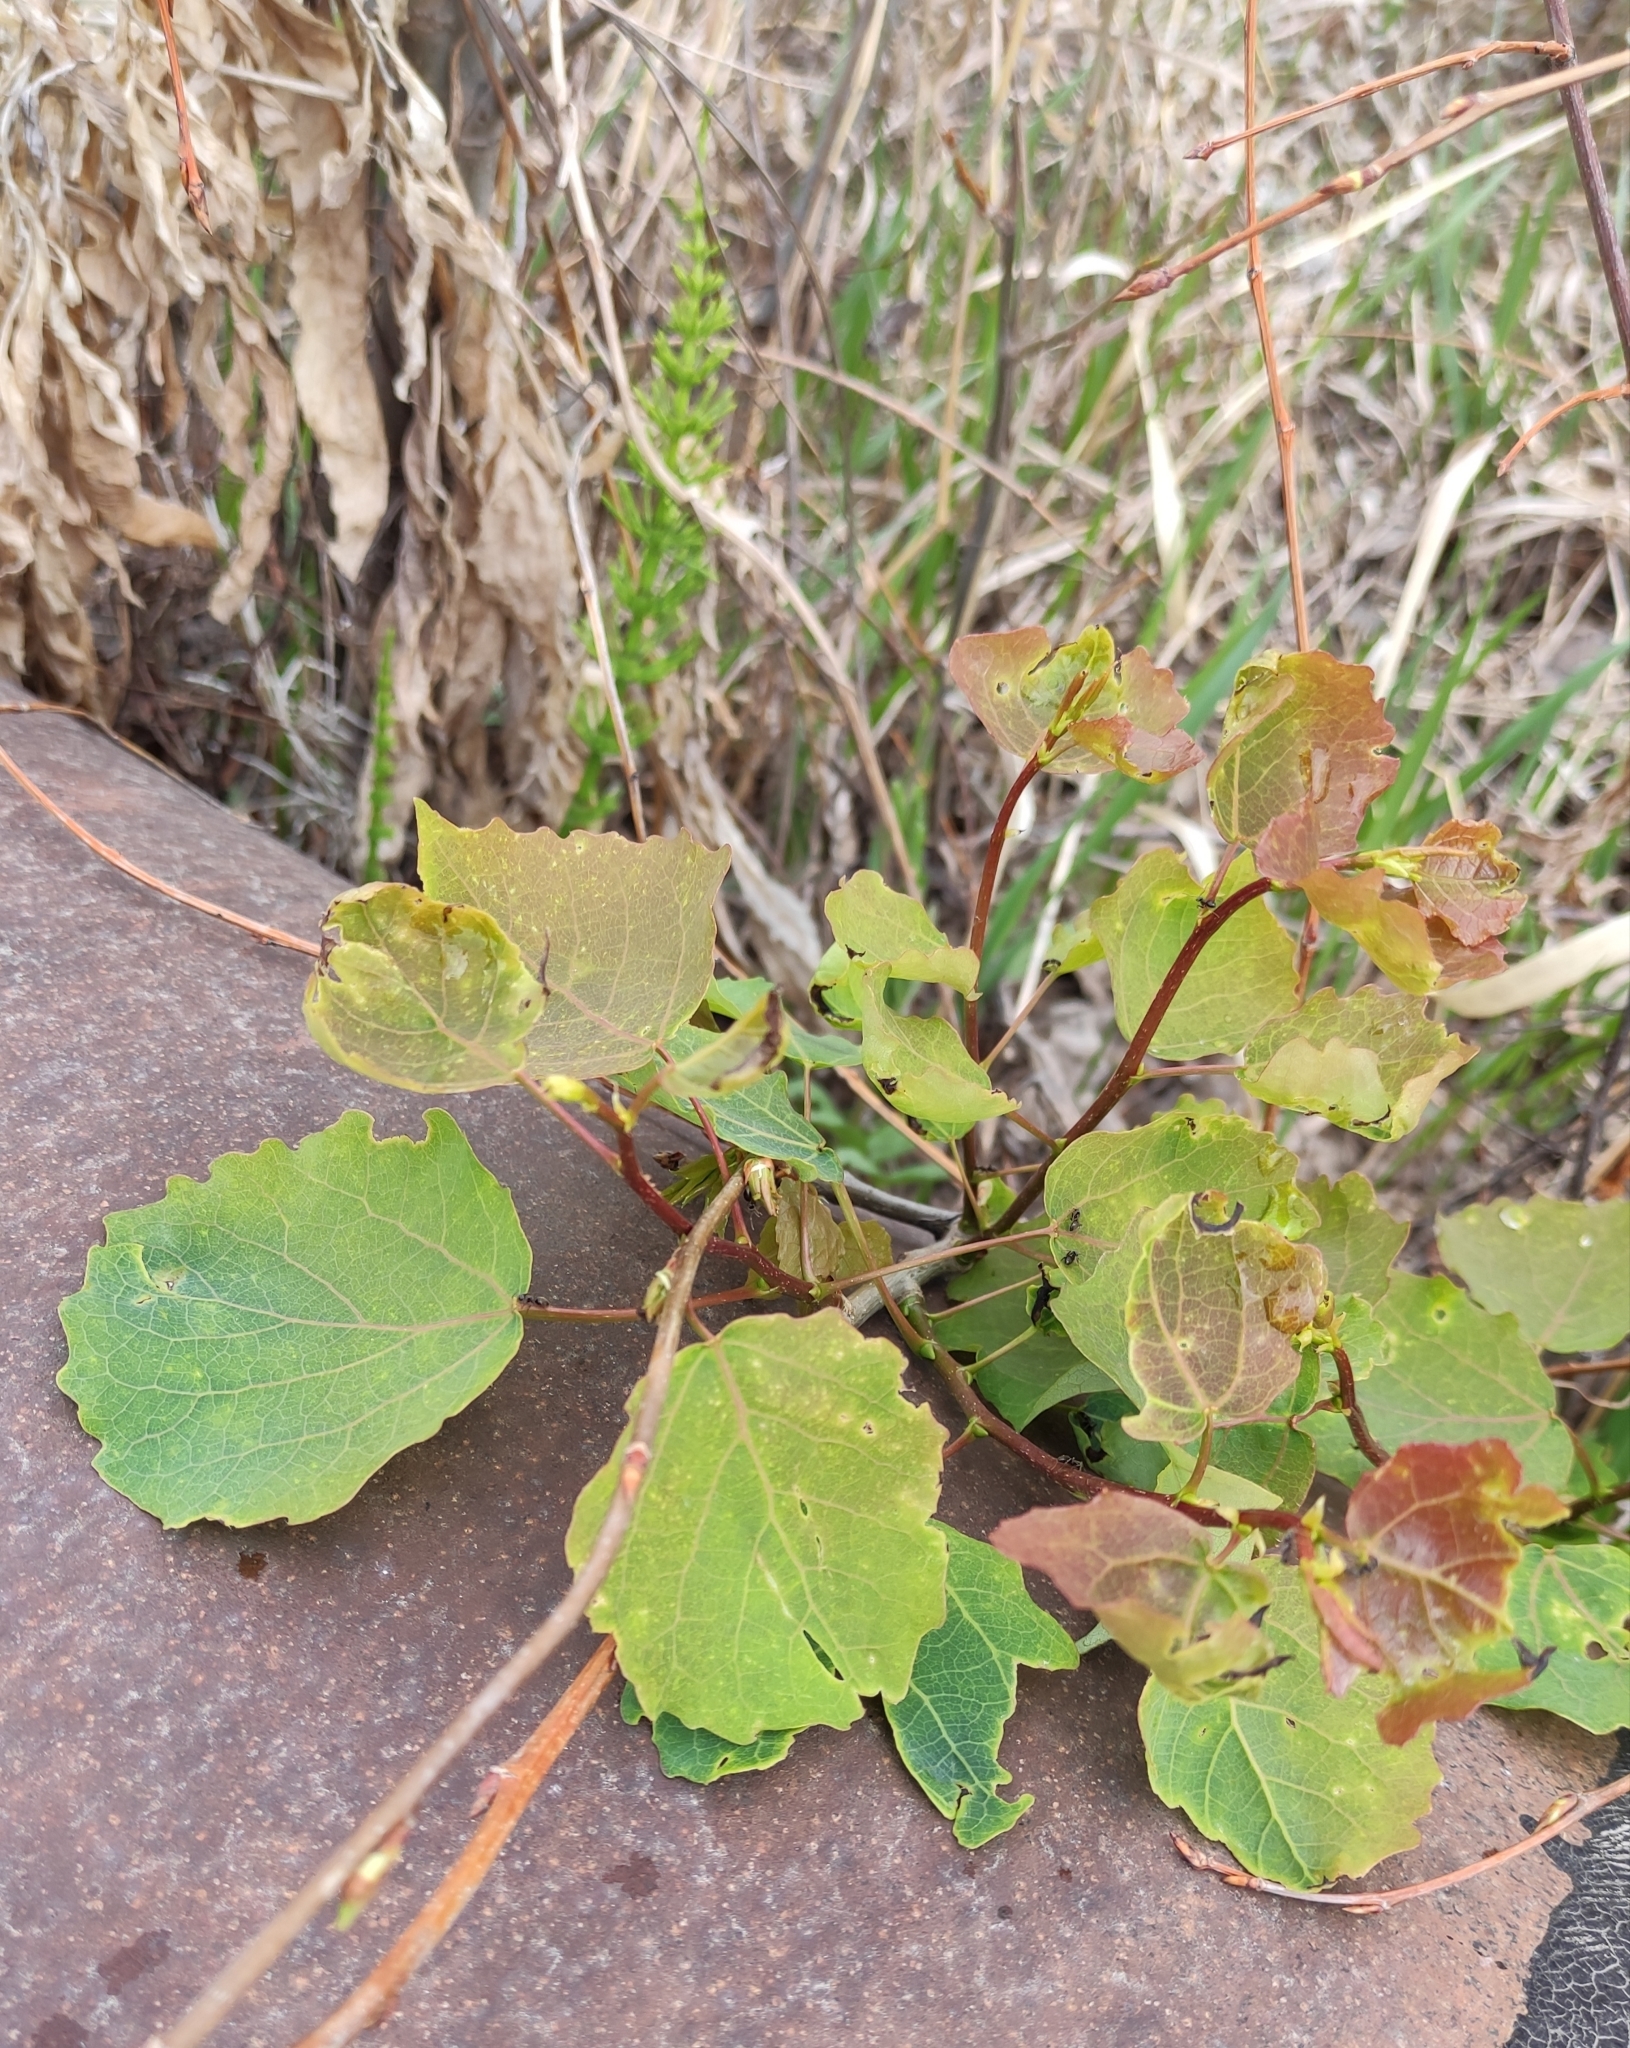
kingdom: Plantae
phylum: Tracheophyta
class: Magnoliopsida
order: Malpighiales
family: Salicaceae
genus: Populus
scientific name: Populus tremula
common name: European aspen
